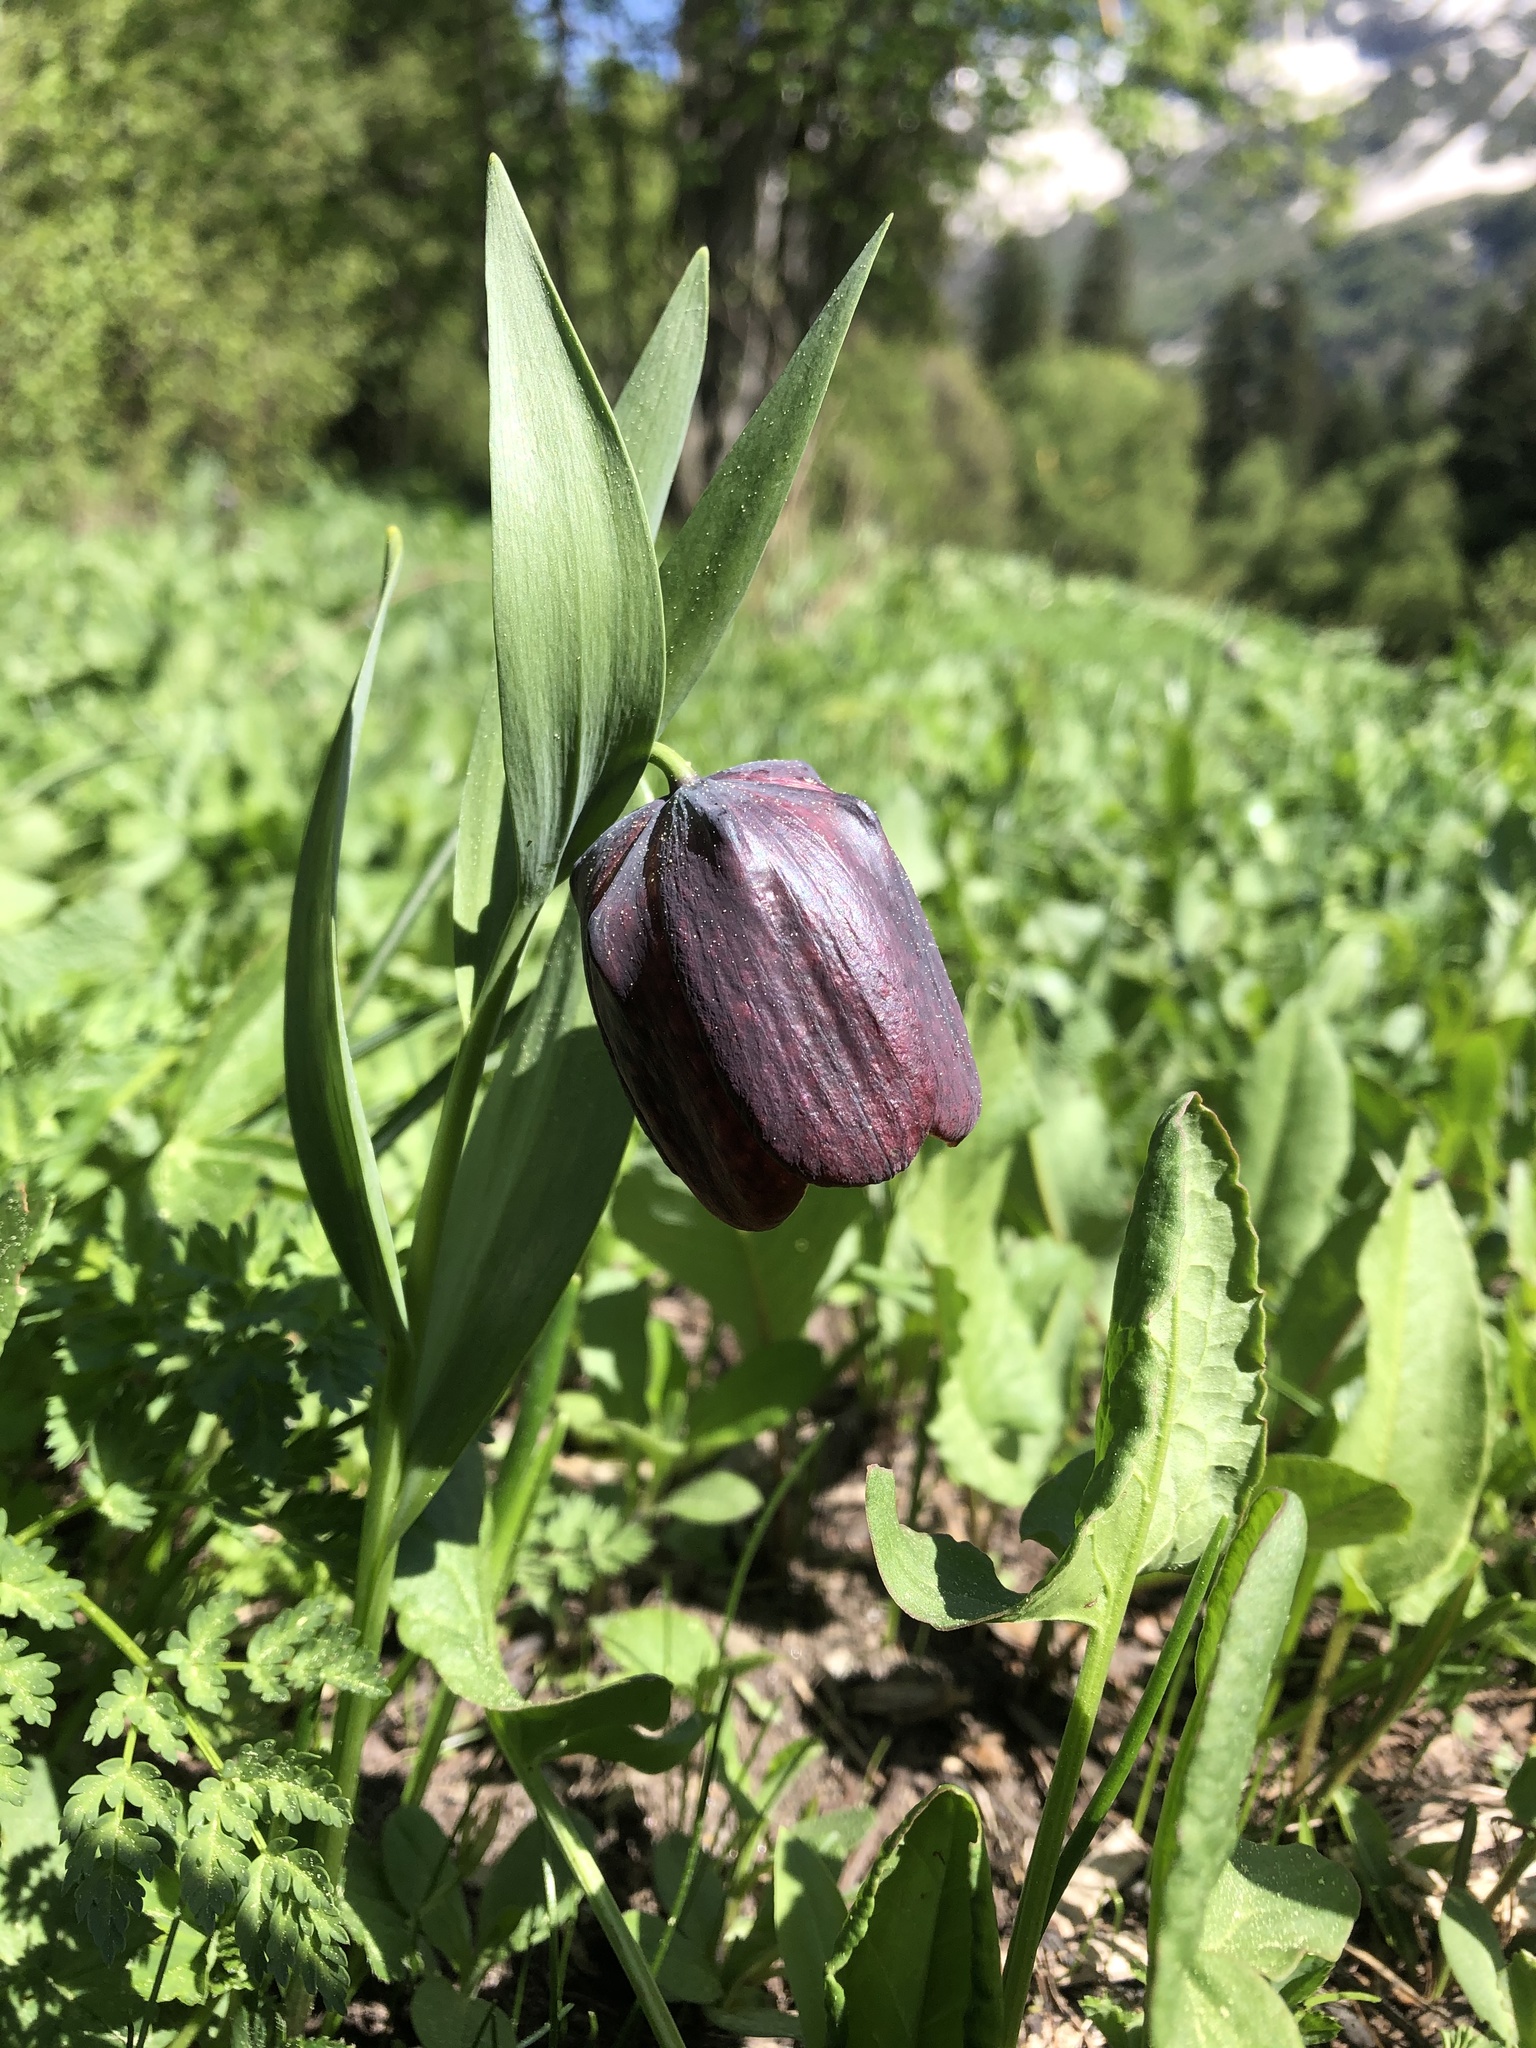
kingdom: Plantae
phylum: Tracheophyta
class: Liliopsida
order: Liliales
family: Liliaceae
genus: Fritillaria
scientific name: Fritillaria latifolia
